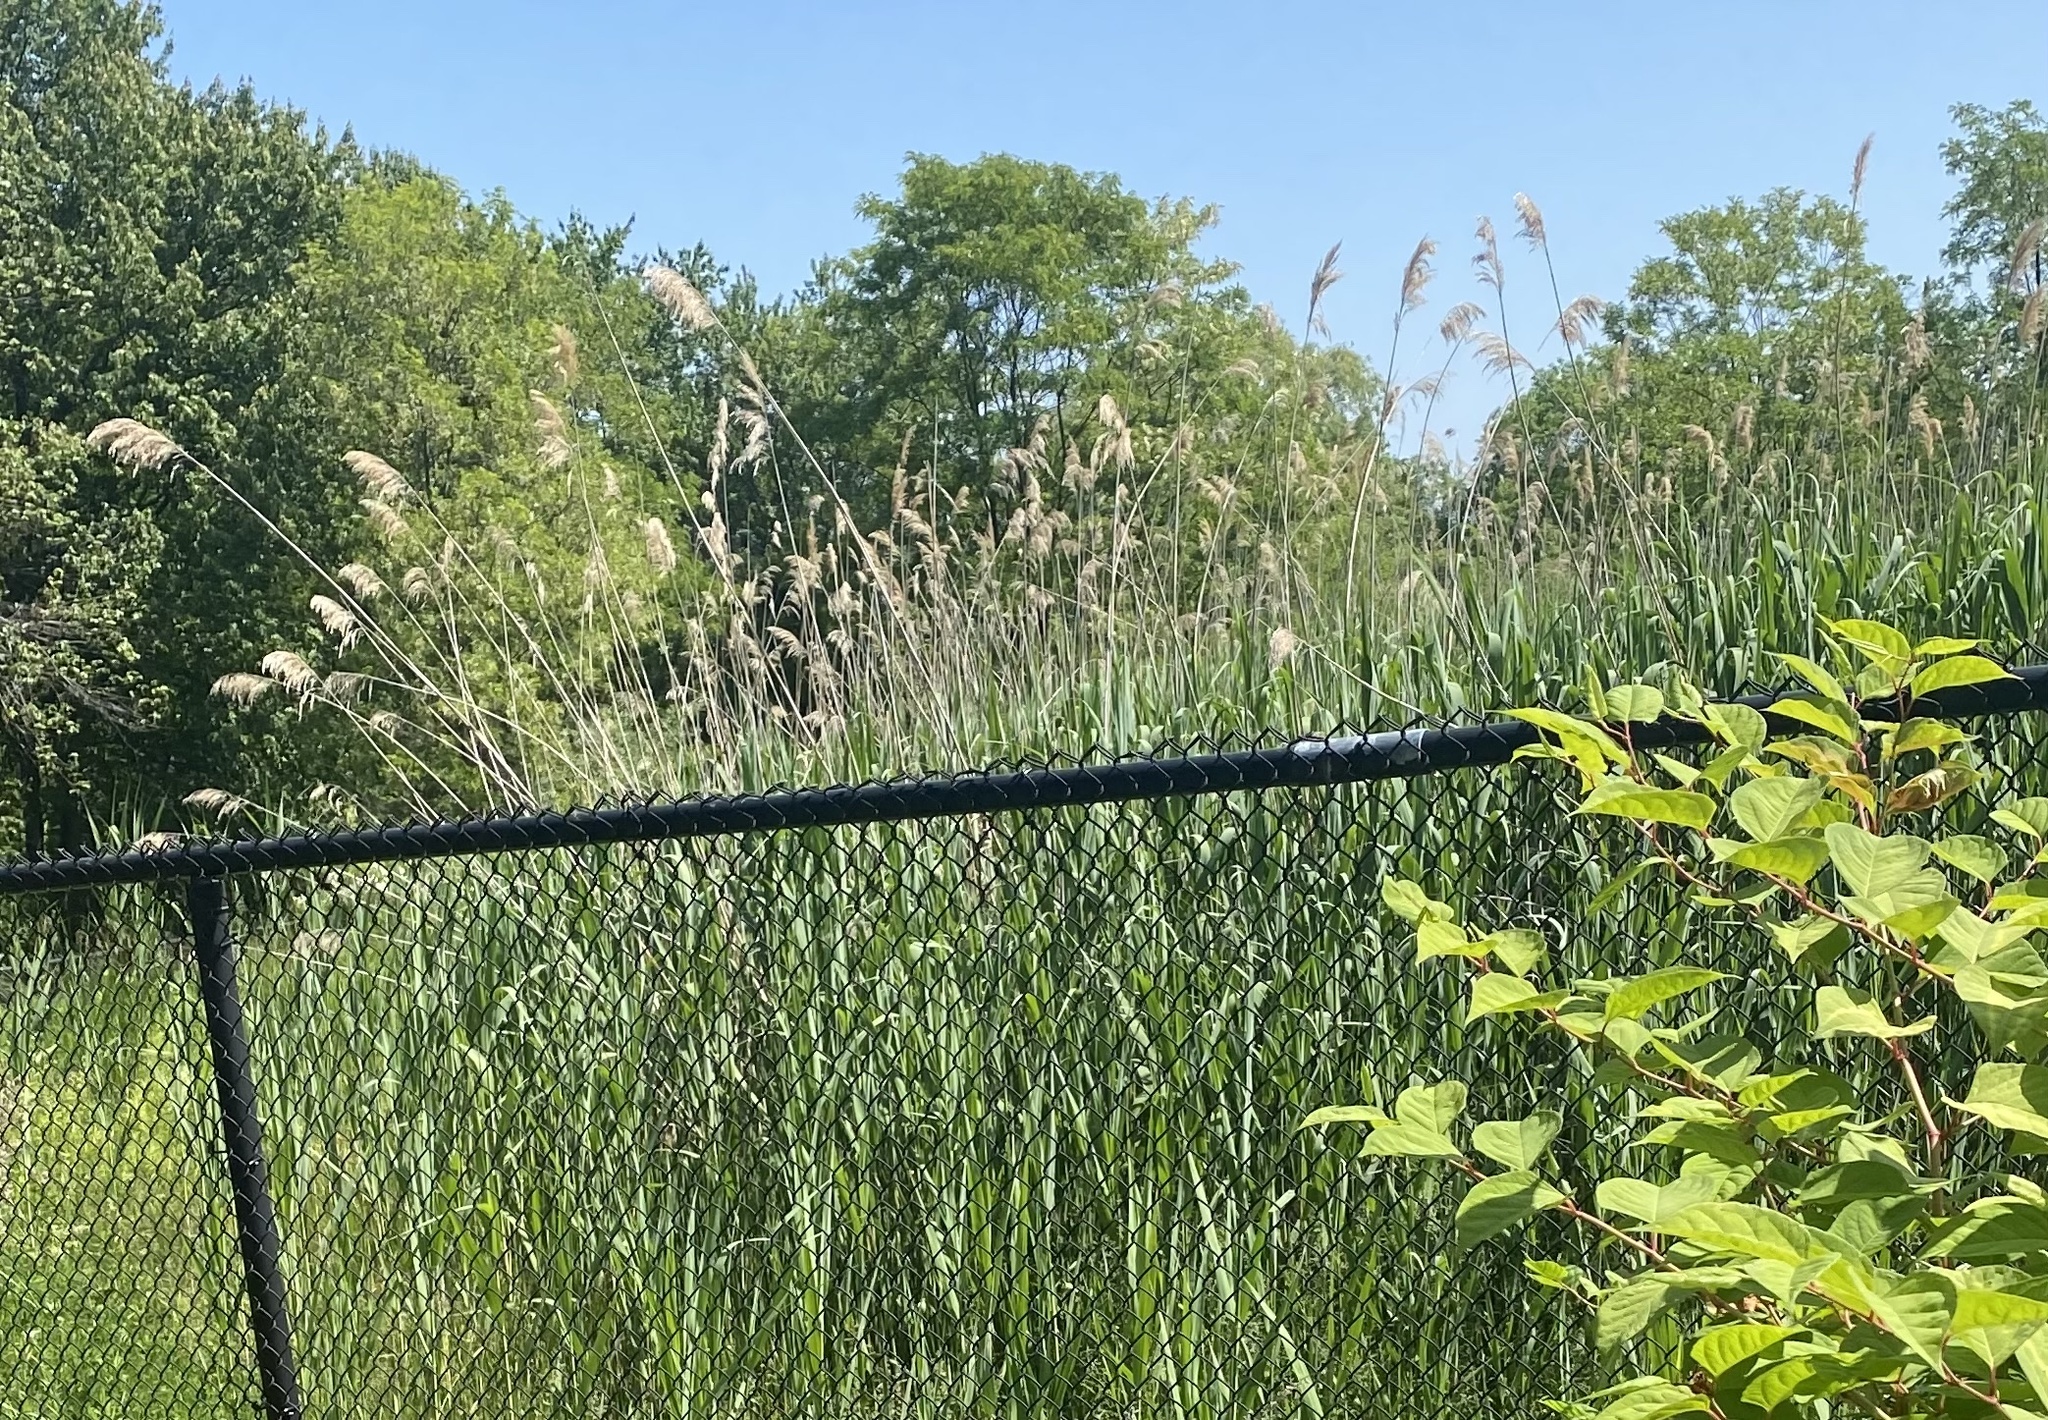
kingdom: Plantae
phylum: Tracheophyta
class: Liliopsida
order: Poales
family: Poaceae
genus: Phragmites
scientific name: Phragmites australis
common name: Common reed
